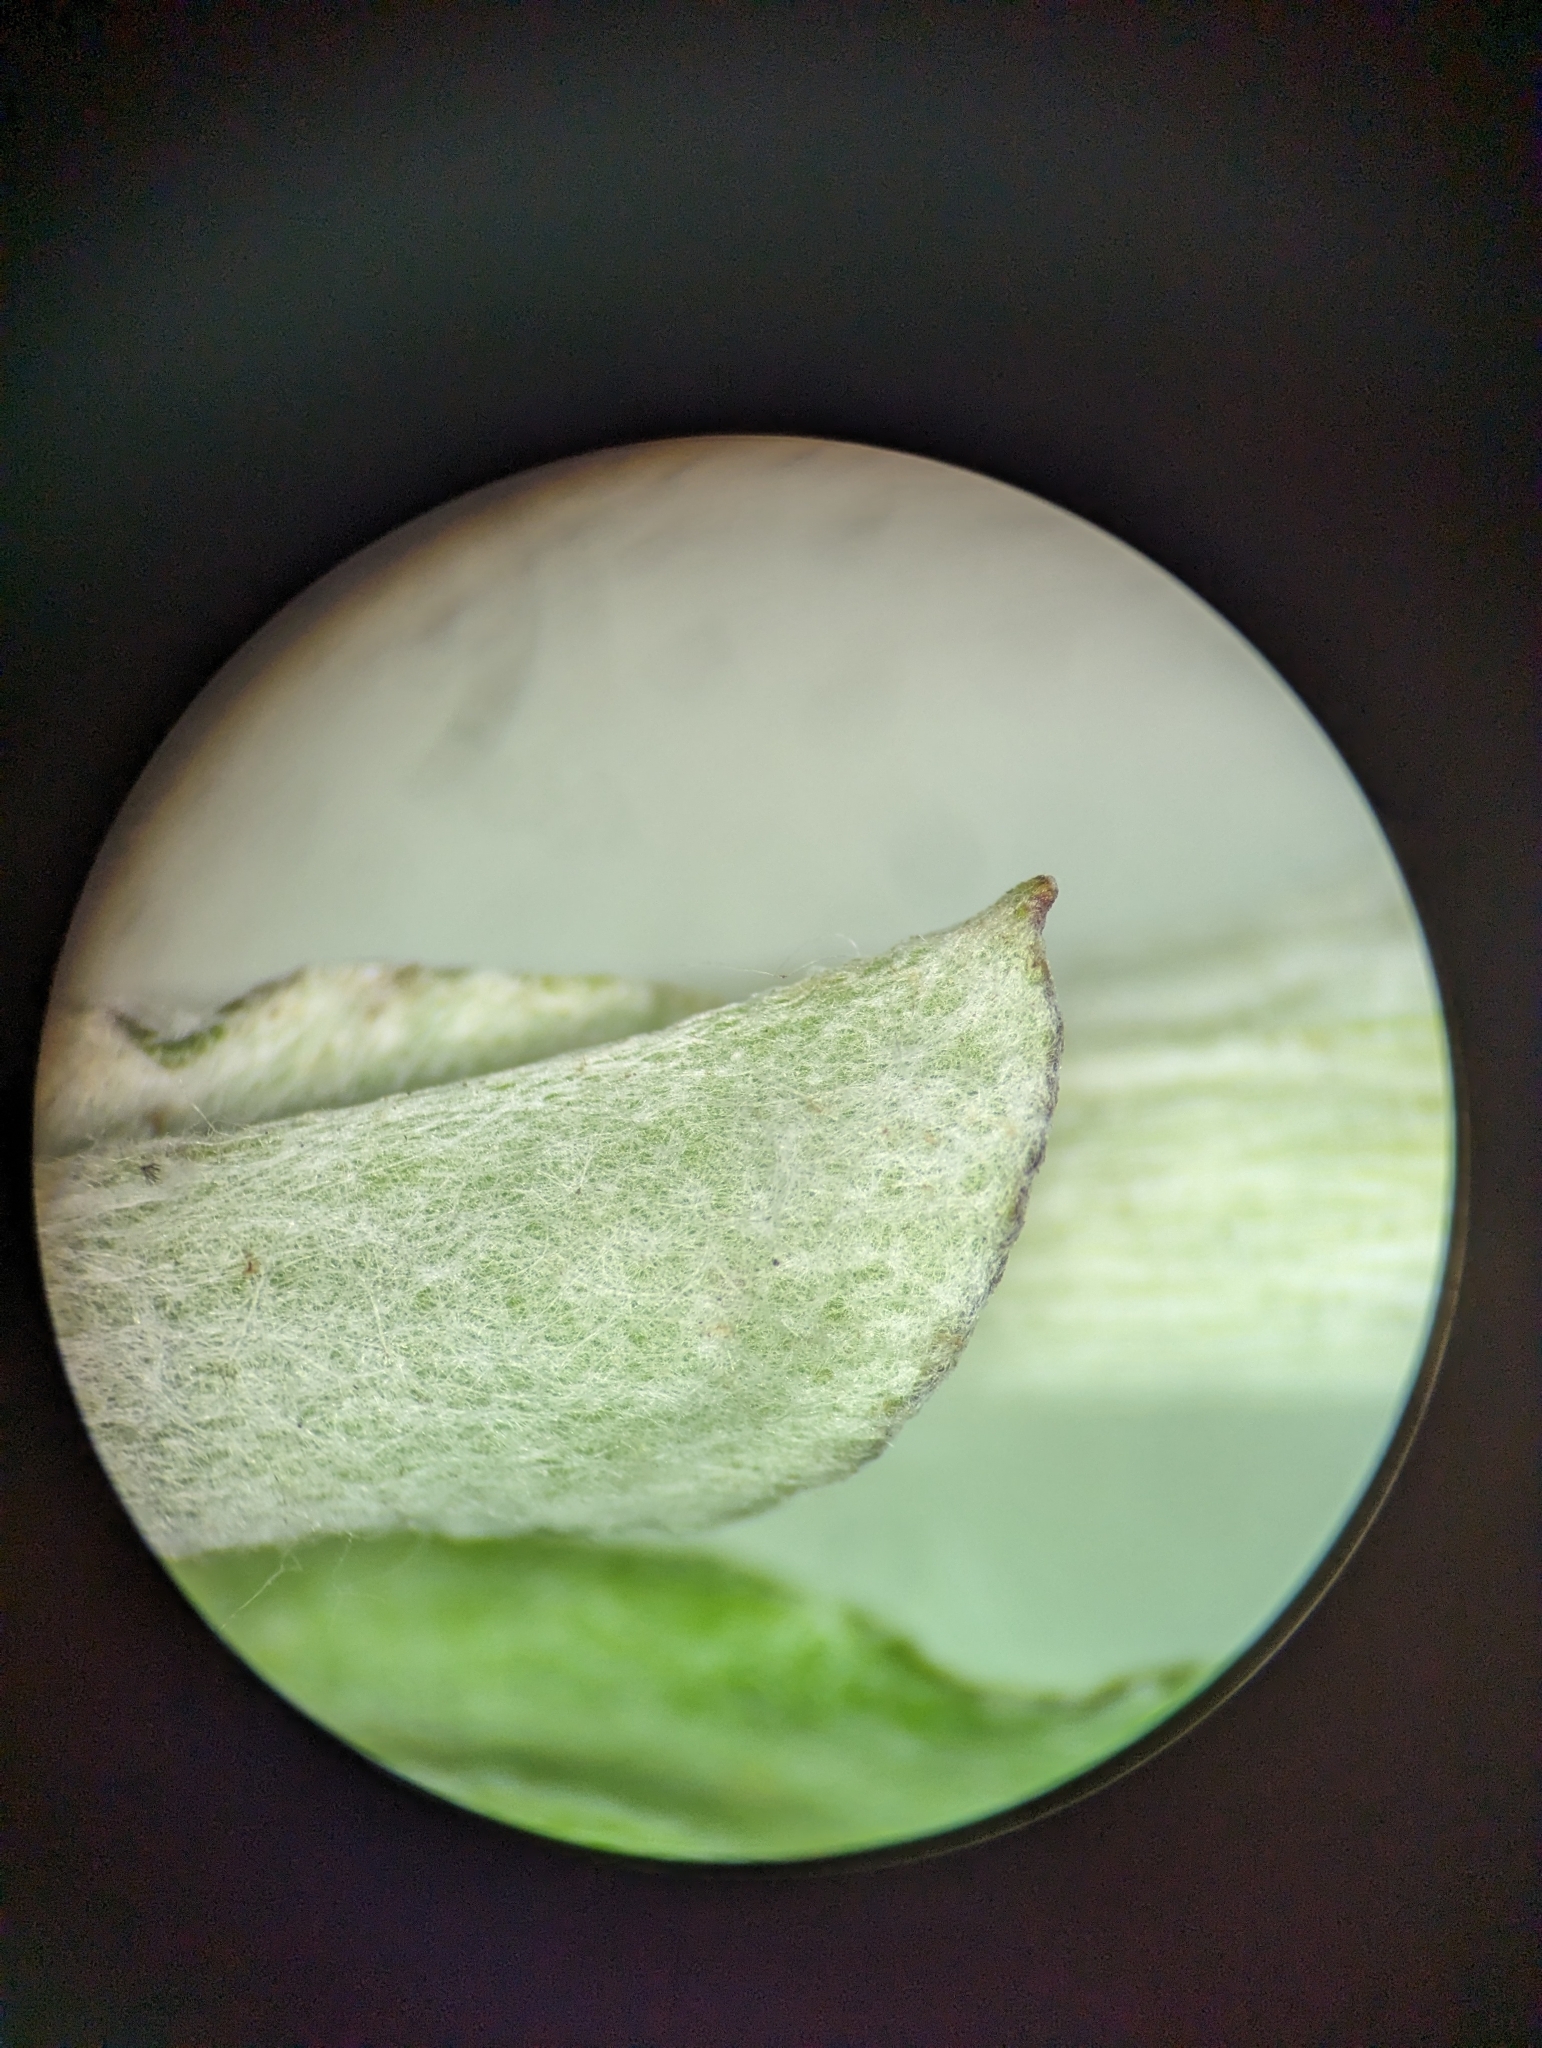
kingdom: Plantae
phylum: Tracheophyta
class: Magnoliopsida
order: Asterales
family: Asteraceae
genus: Gamochaeta
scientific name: Gamochaeta argyrinea
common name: Silvery cudweed
